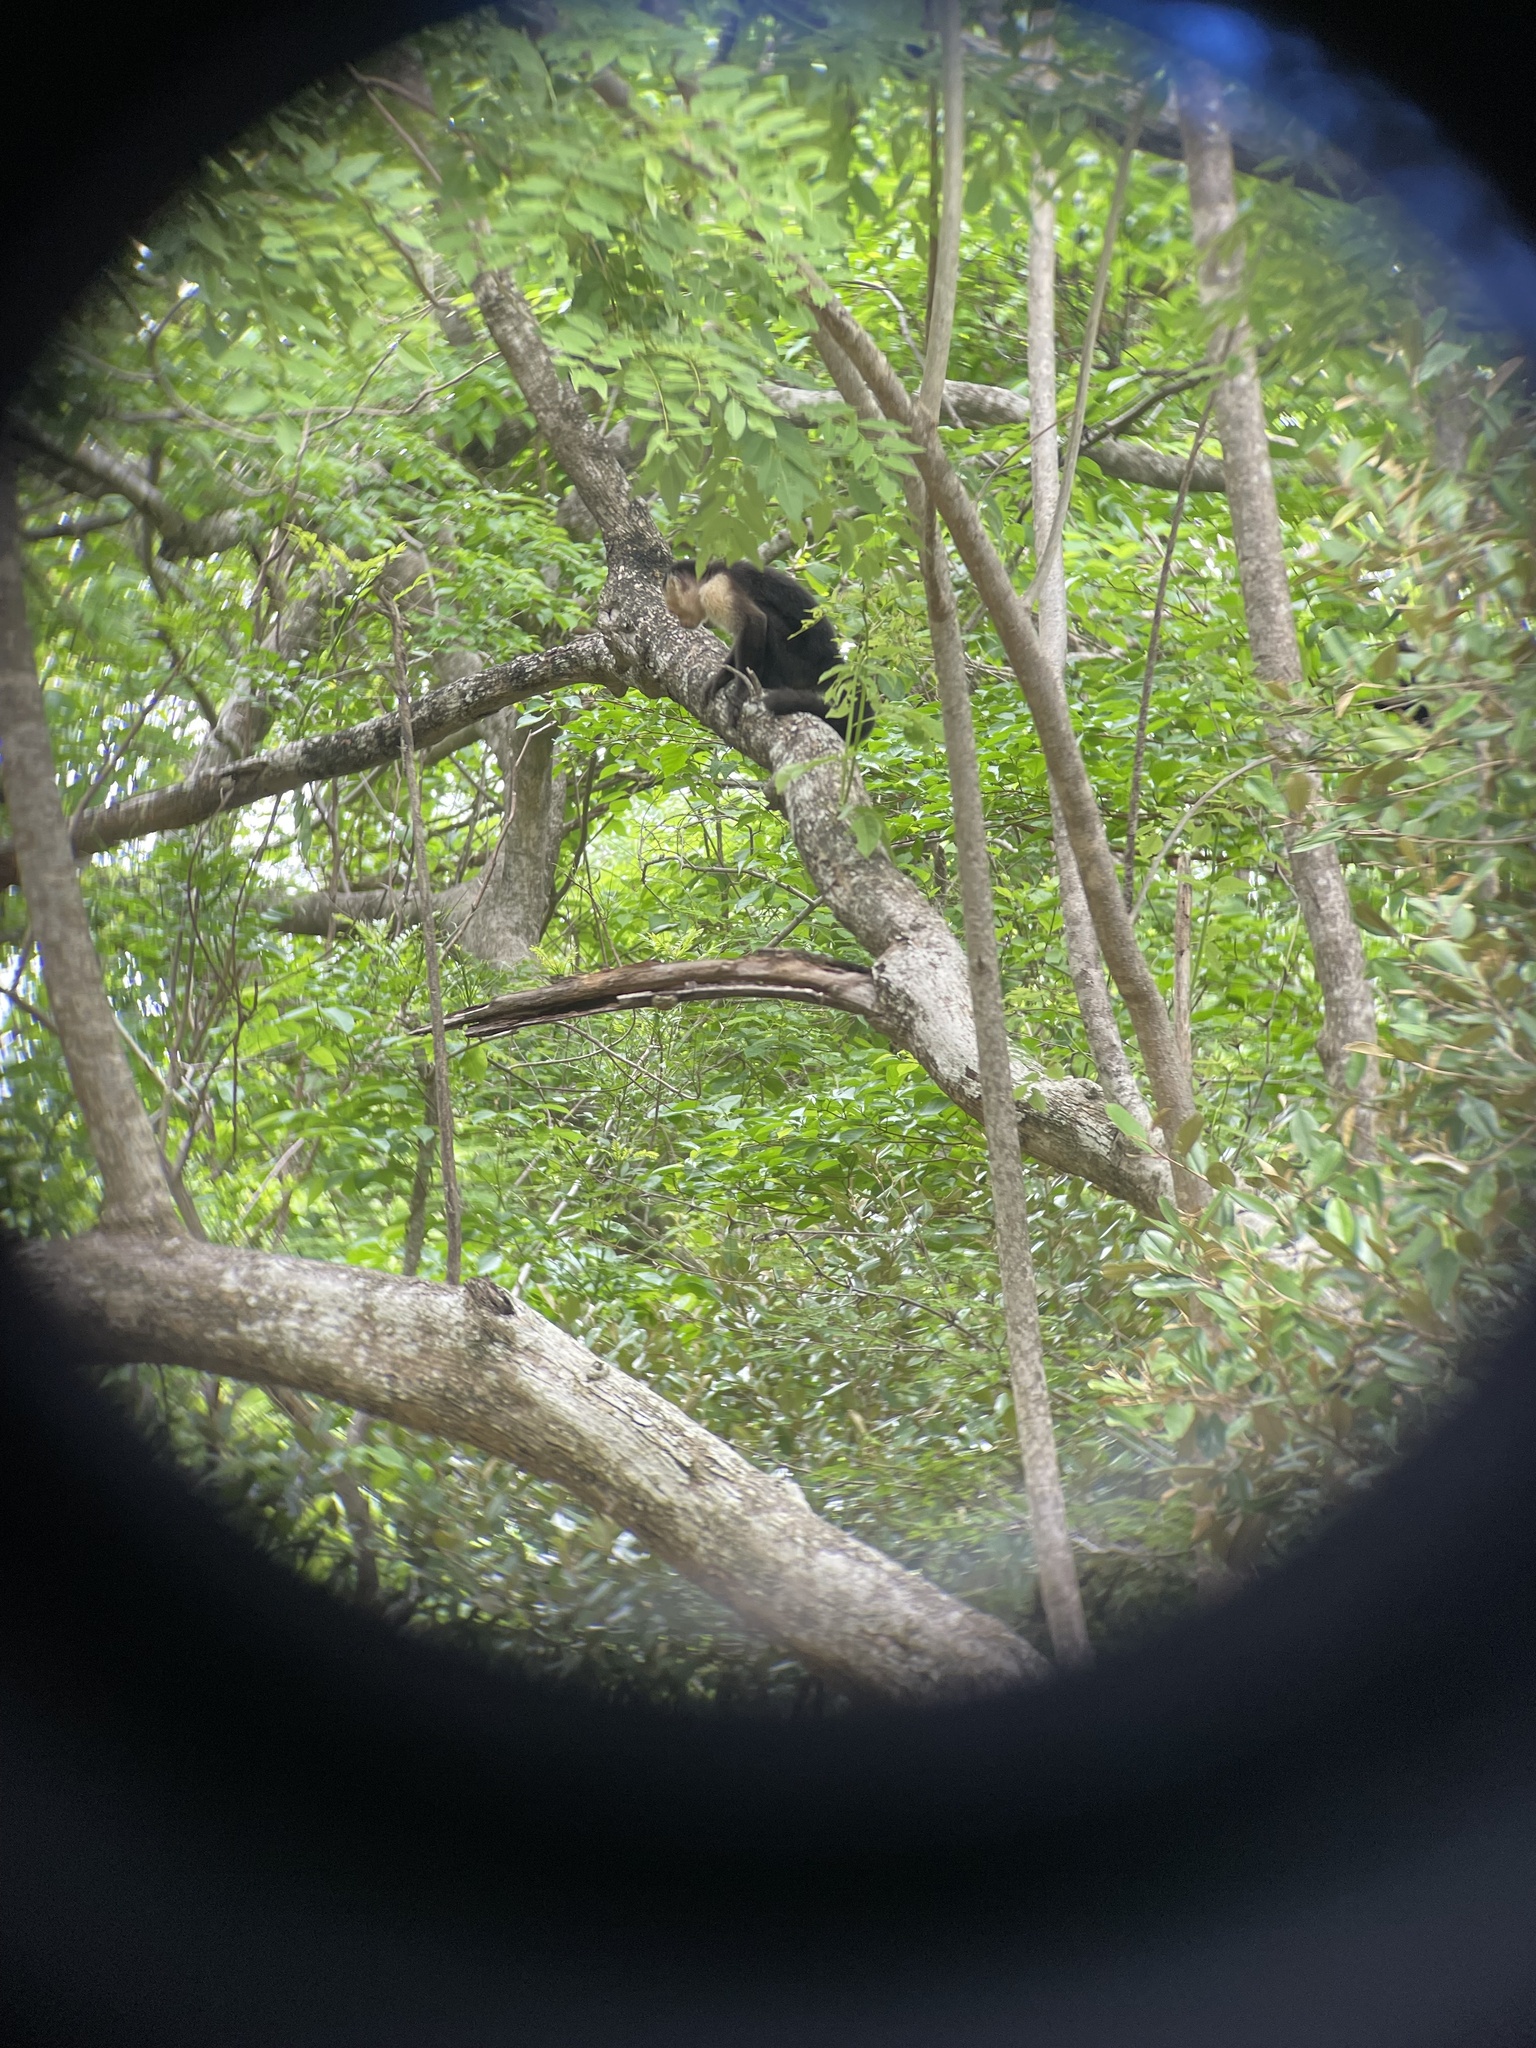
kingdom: Animalia
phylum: Chordata
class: Mammalia
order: Primates
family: Cebidae
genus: Cebus
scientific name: Cebus imitator
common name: Panamanian white-faced capuchin
